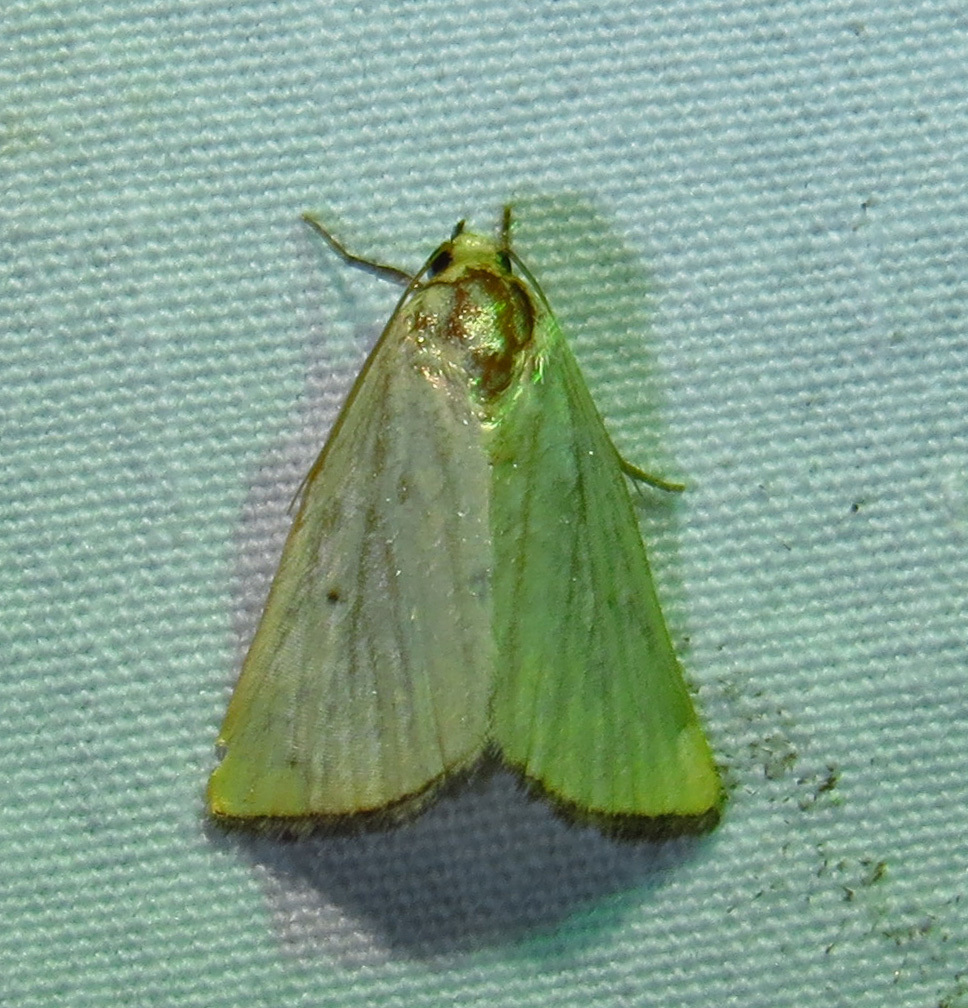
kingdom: Animalia
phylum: Arthropoda
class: Insecta
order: Lepidoptera
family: Noctuidae
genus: Marimatha
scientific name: Marimatha nigrofimbria
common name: Black-bordered lemon moth
